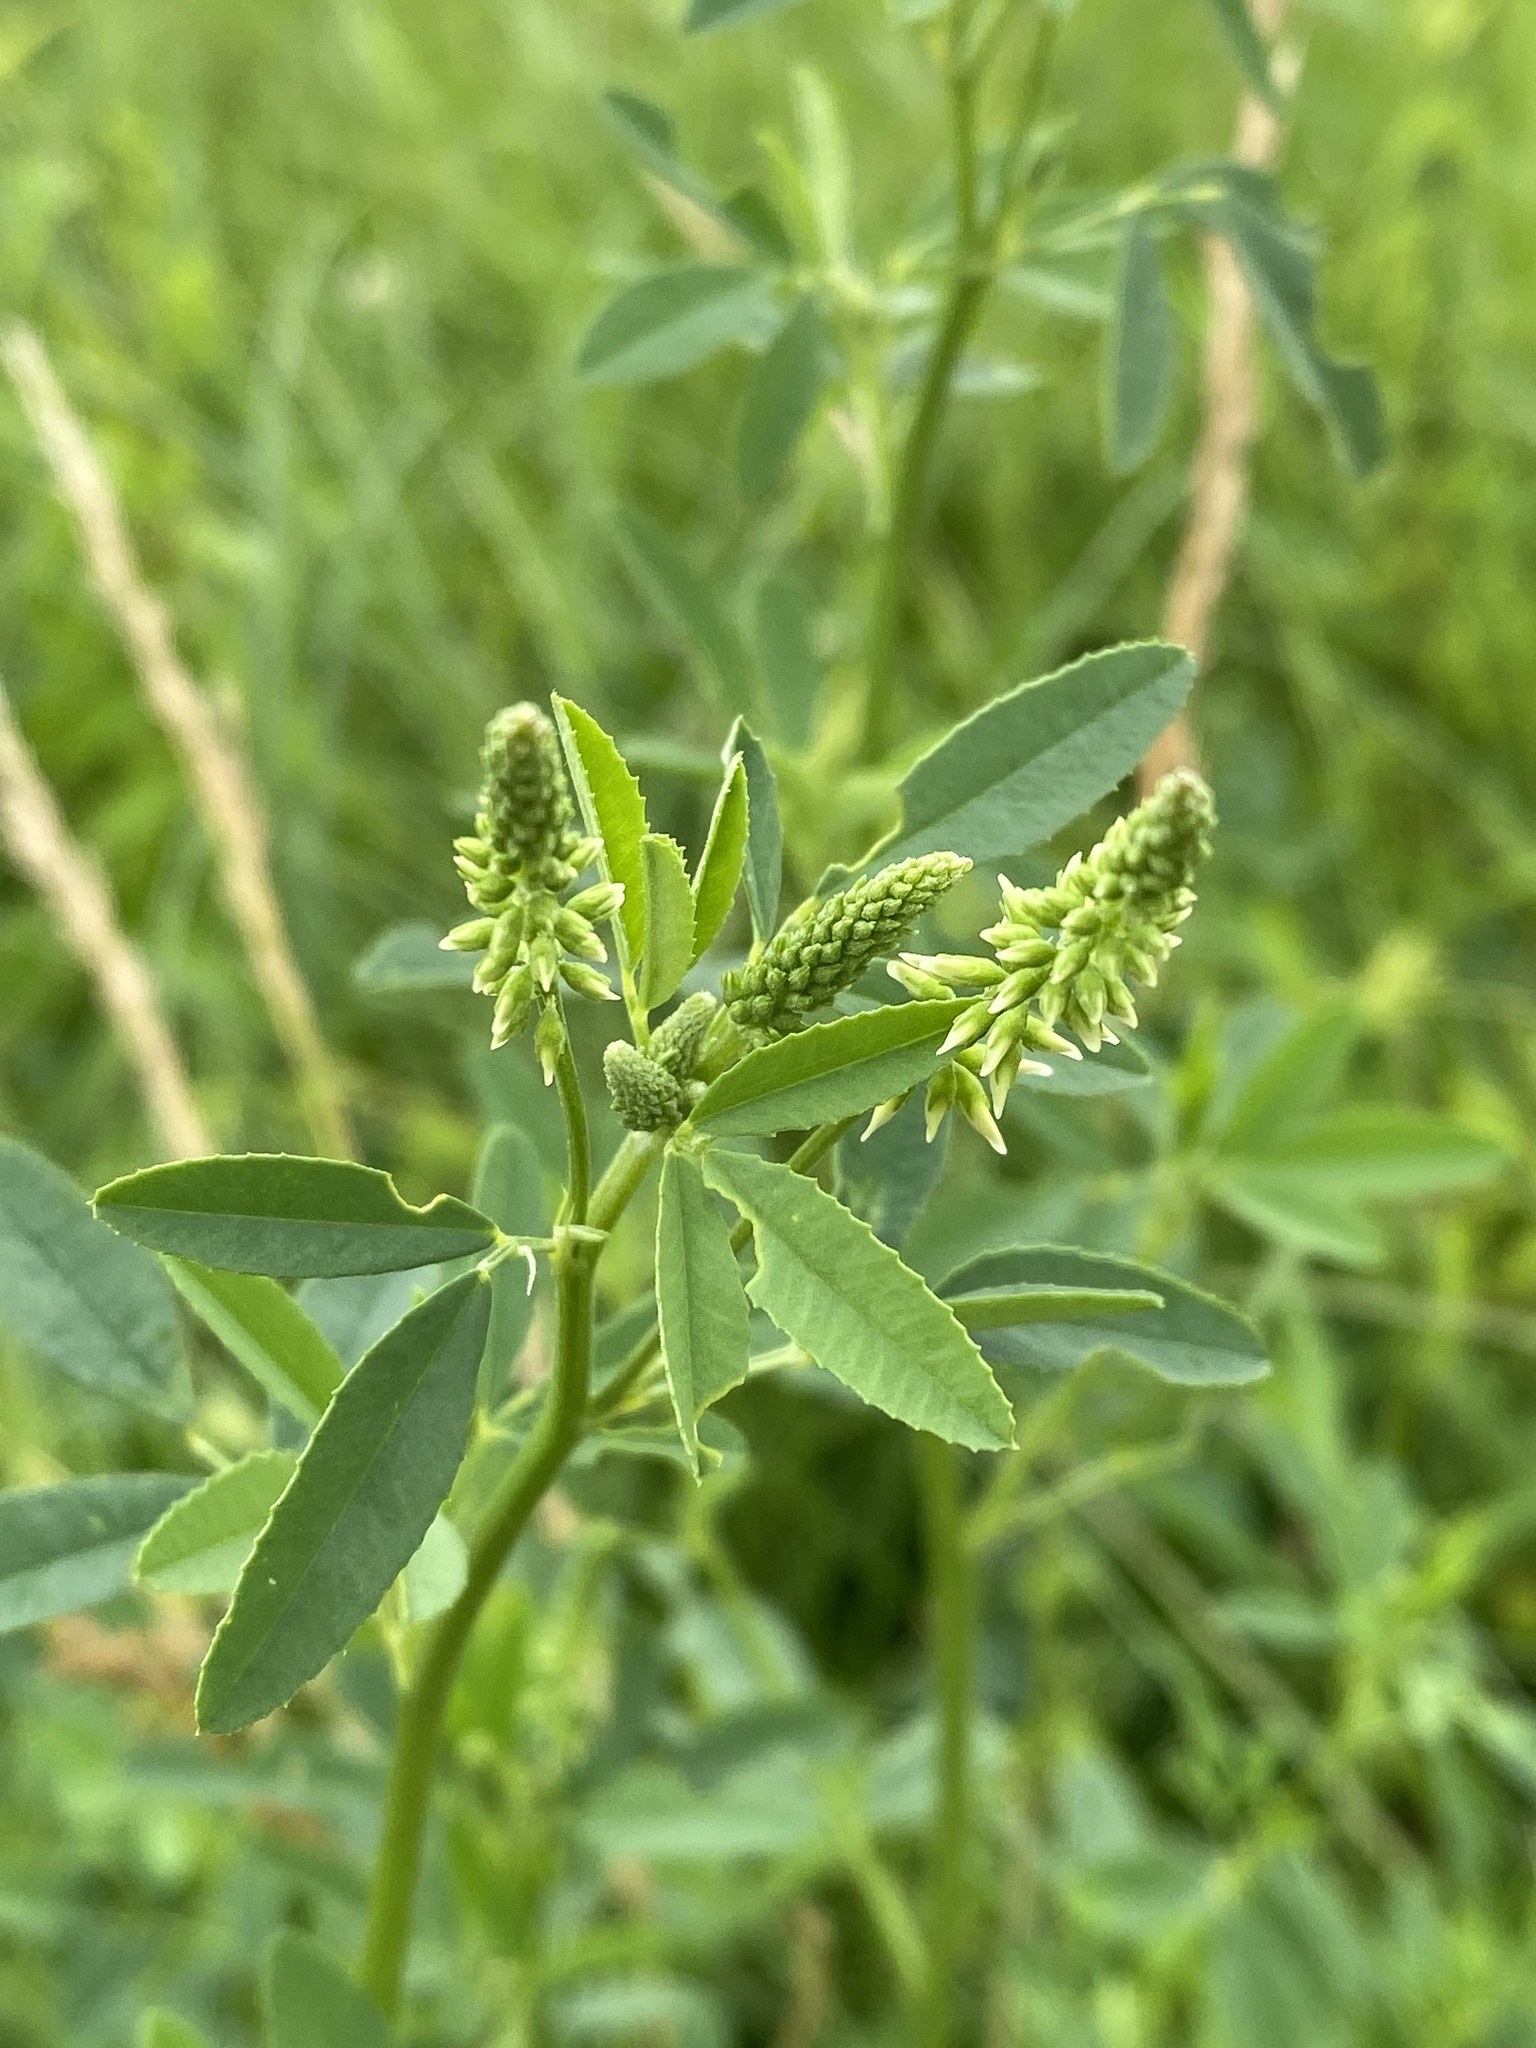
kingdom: Plantae
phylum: Tracheophyta
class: Magnoliopsida
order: Fabales
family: Fabaceae
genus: Melilotus
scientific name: Melilotus albus
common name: White melilot
